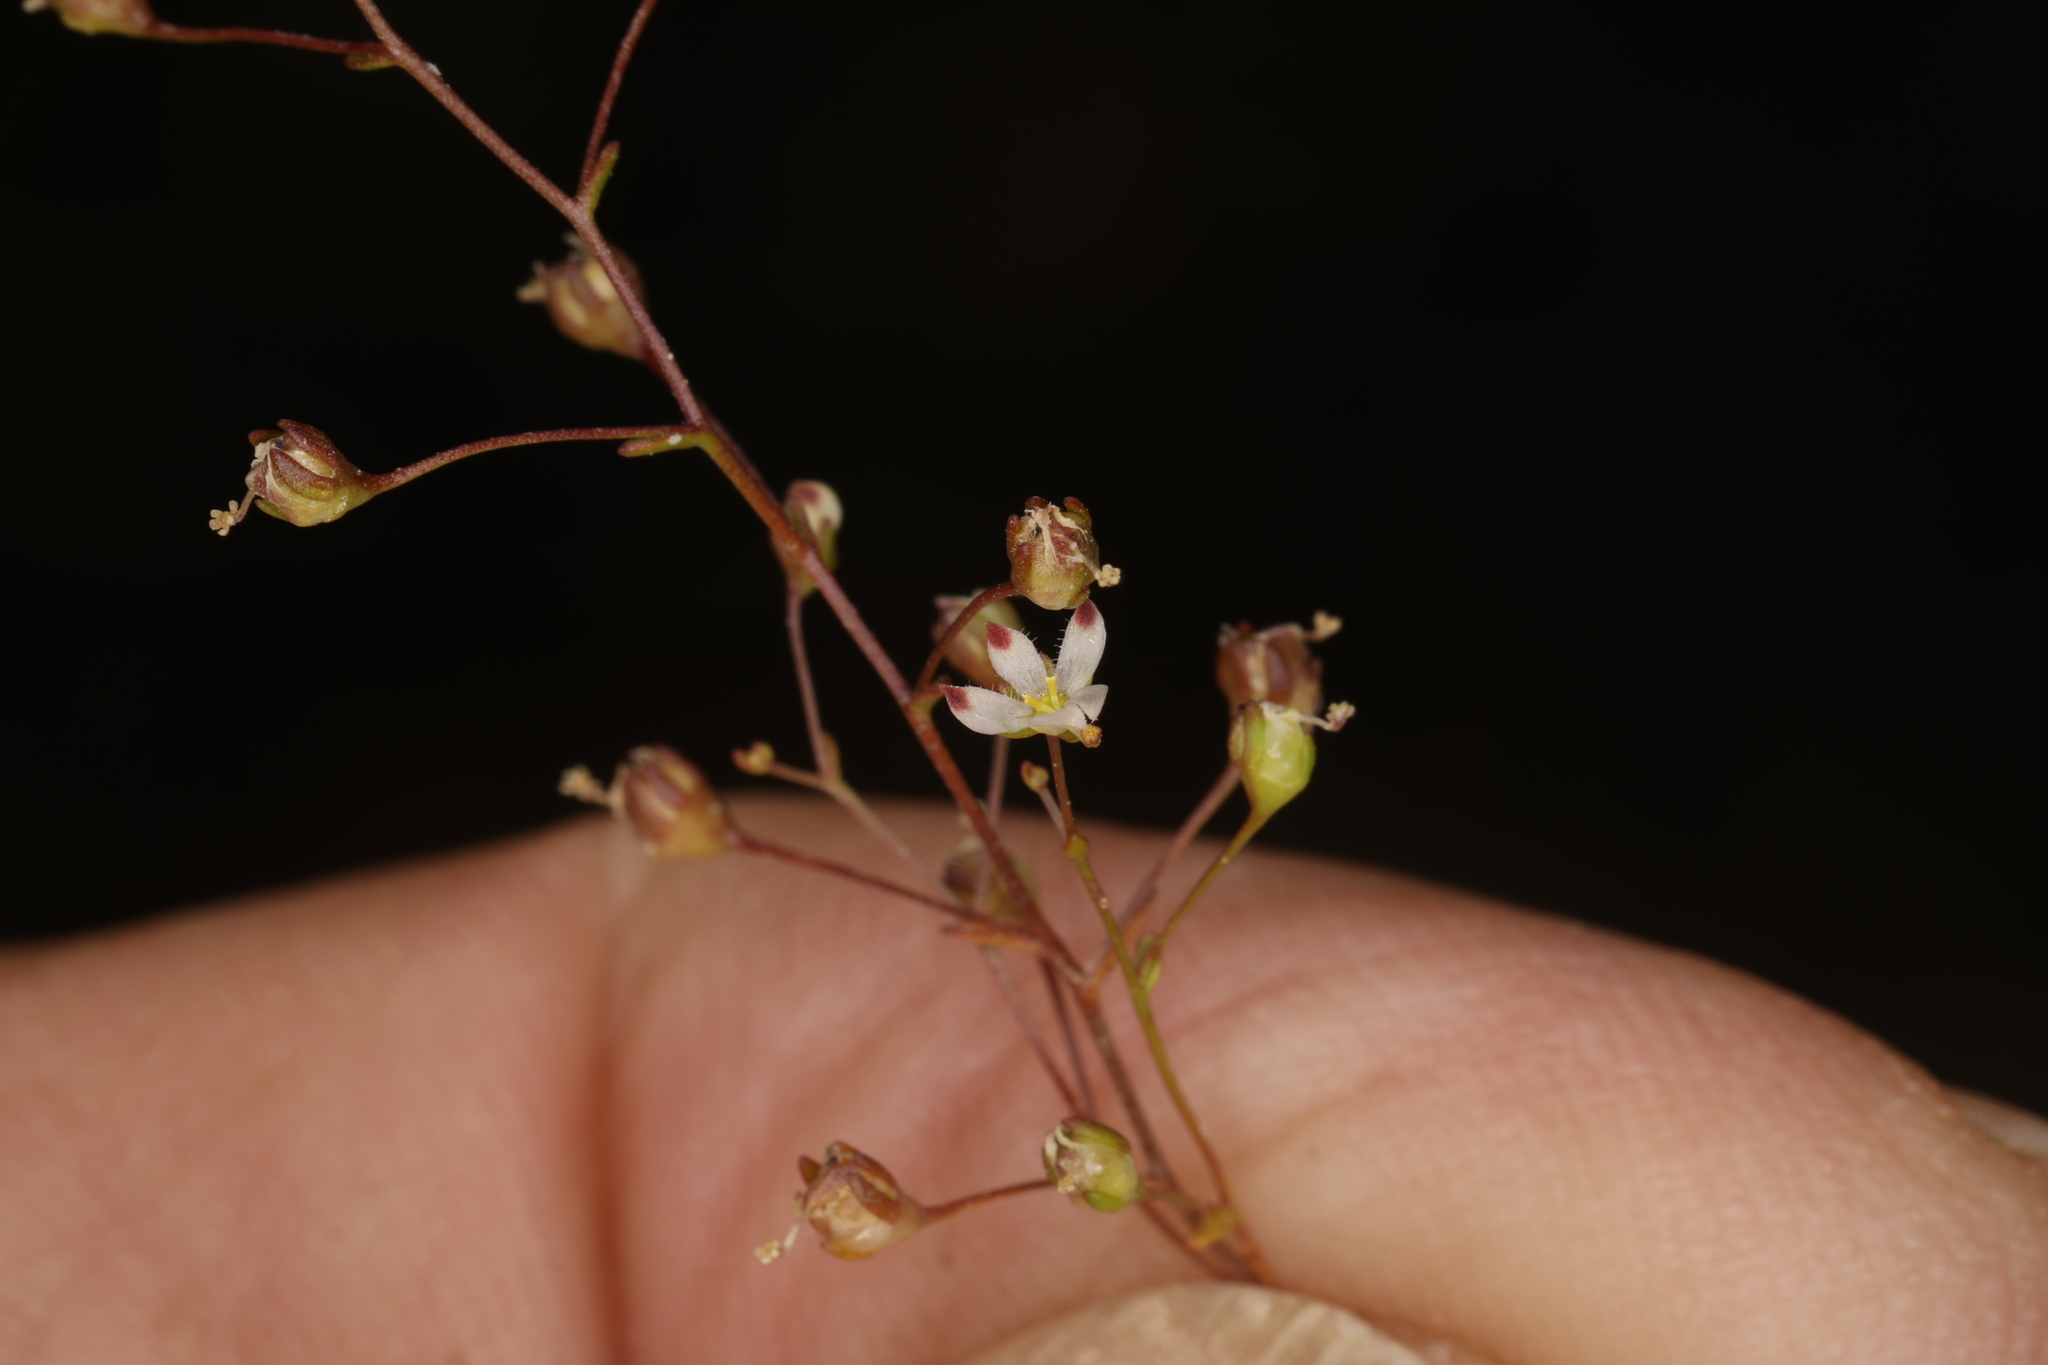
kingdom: Plantae
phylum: Tracheophyta
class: Magnoliopsida
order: Asterales
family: Campanulaceae
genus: Nemacladus
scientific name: Nemacladus orientalis
